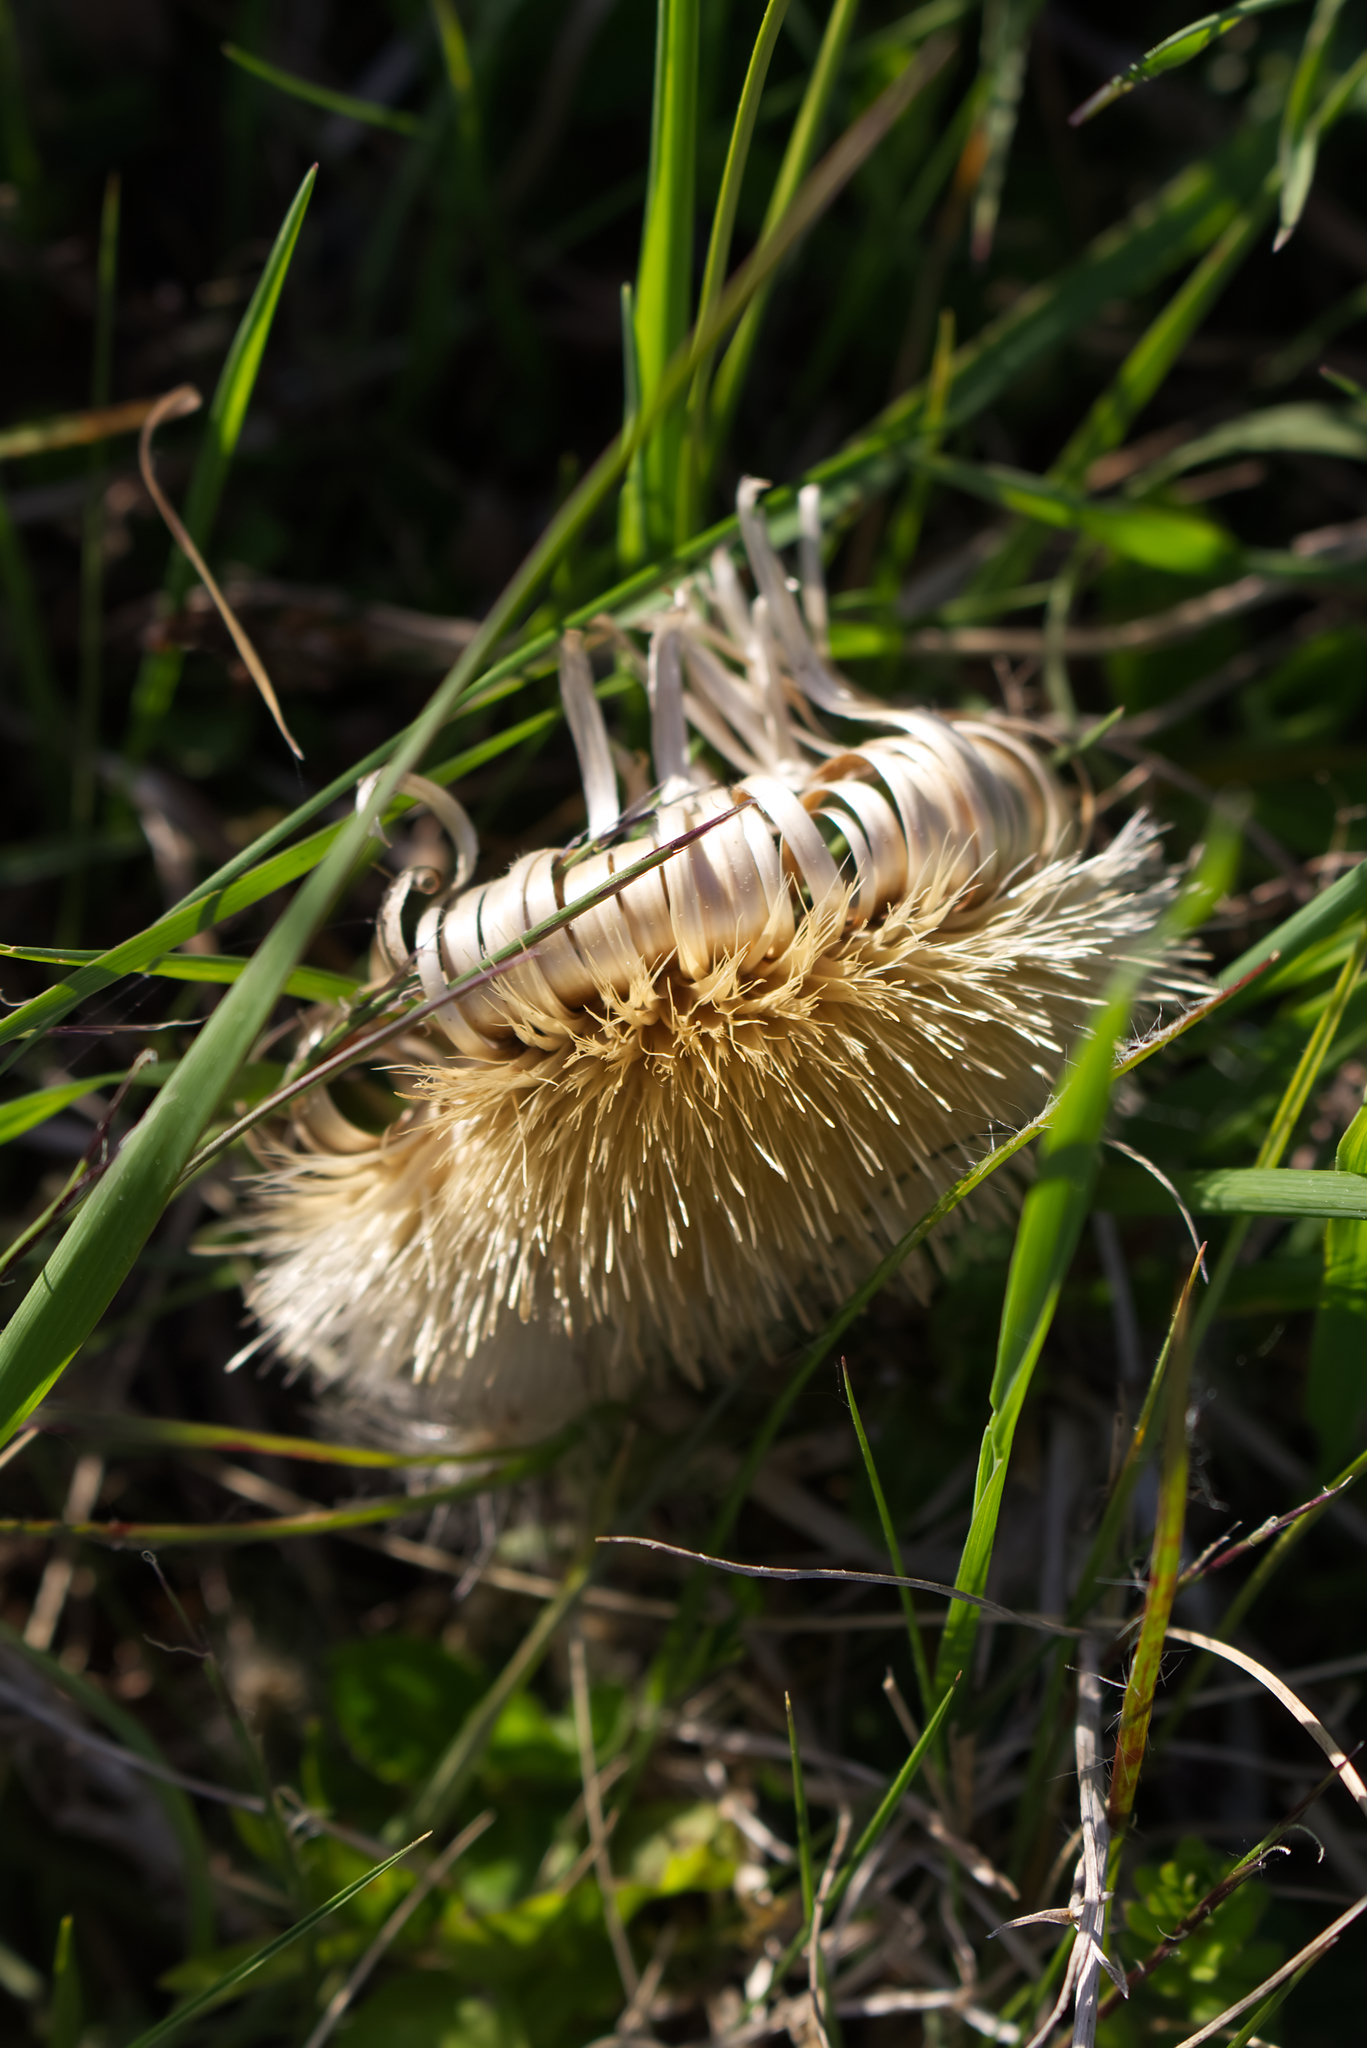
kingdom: Plantae
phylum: Tracheophyta
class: Magnoliopsida
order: Asterales
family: Asteraceae
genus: Carlina
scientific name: Carlina acaulis
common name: Stemless carline thistle
